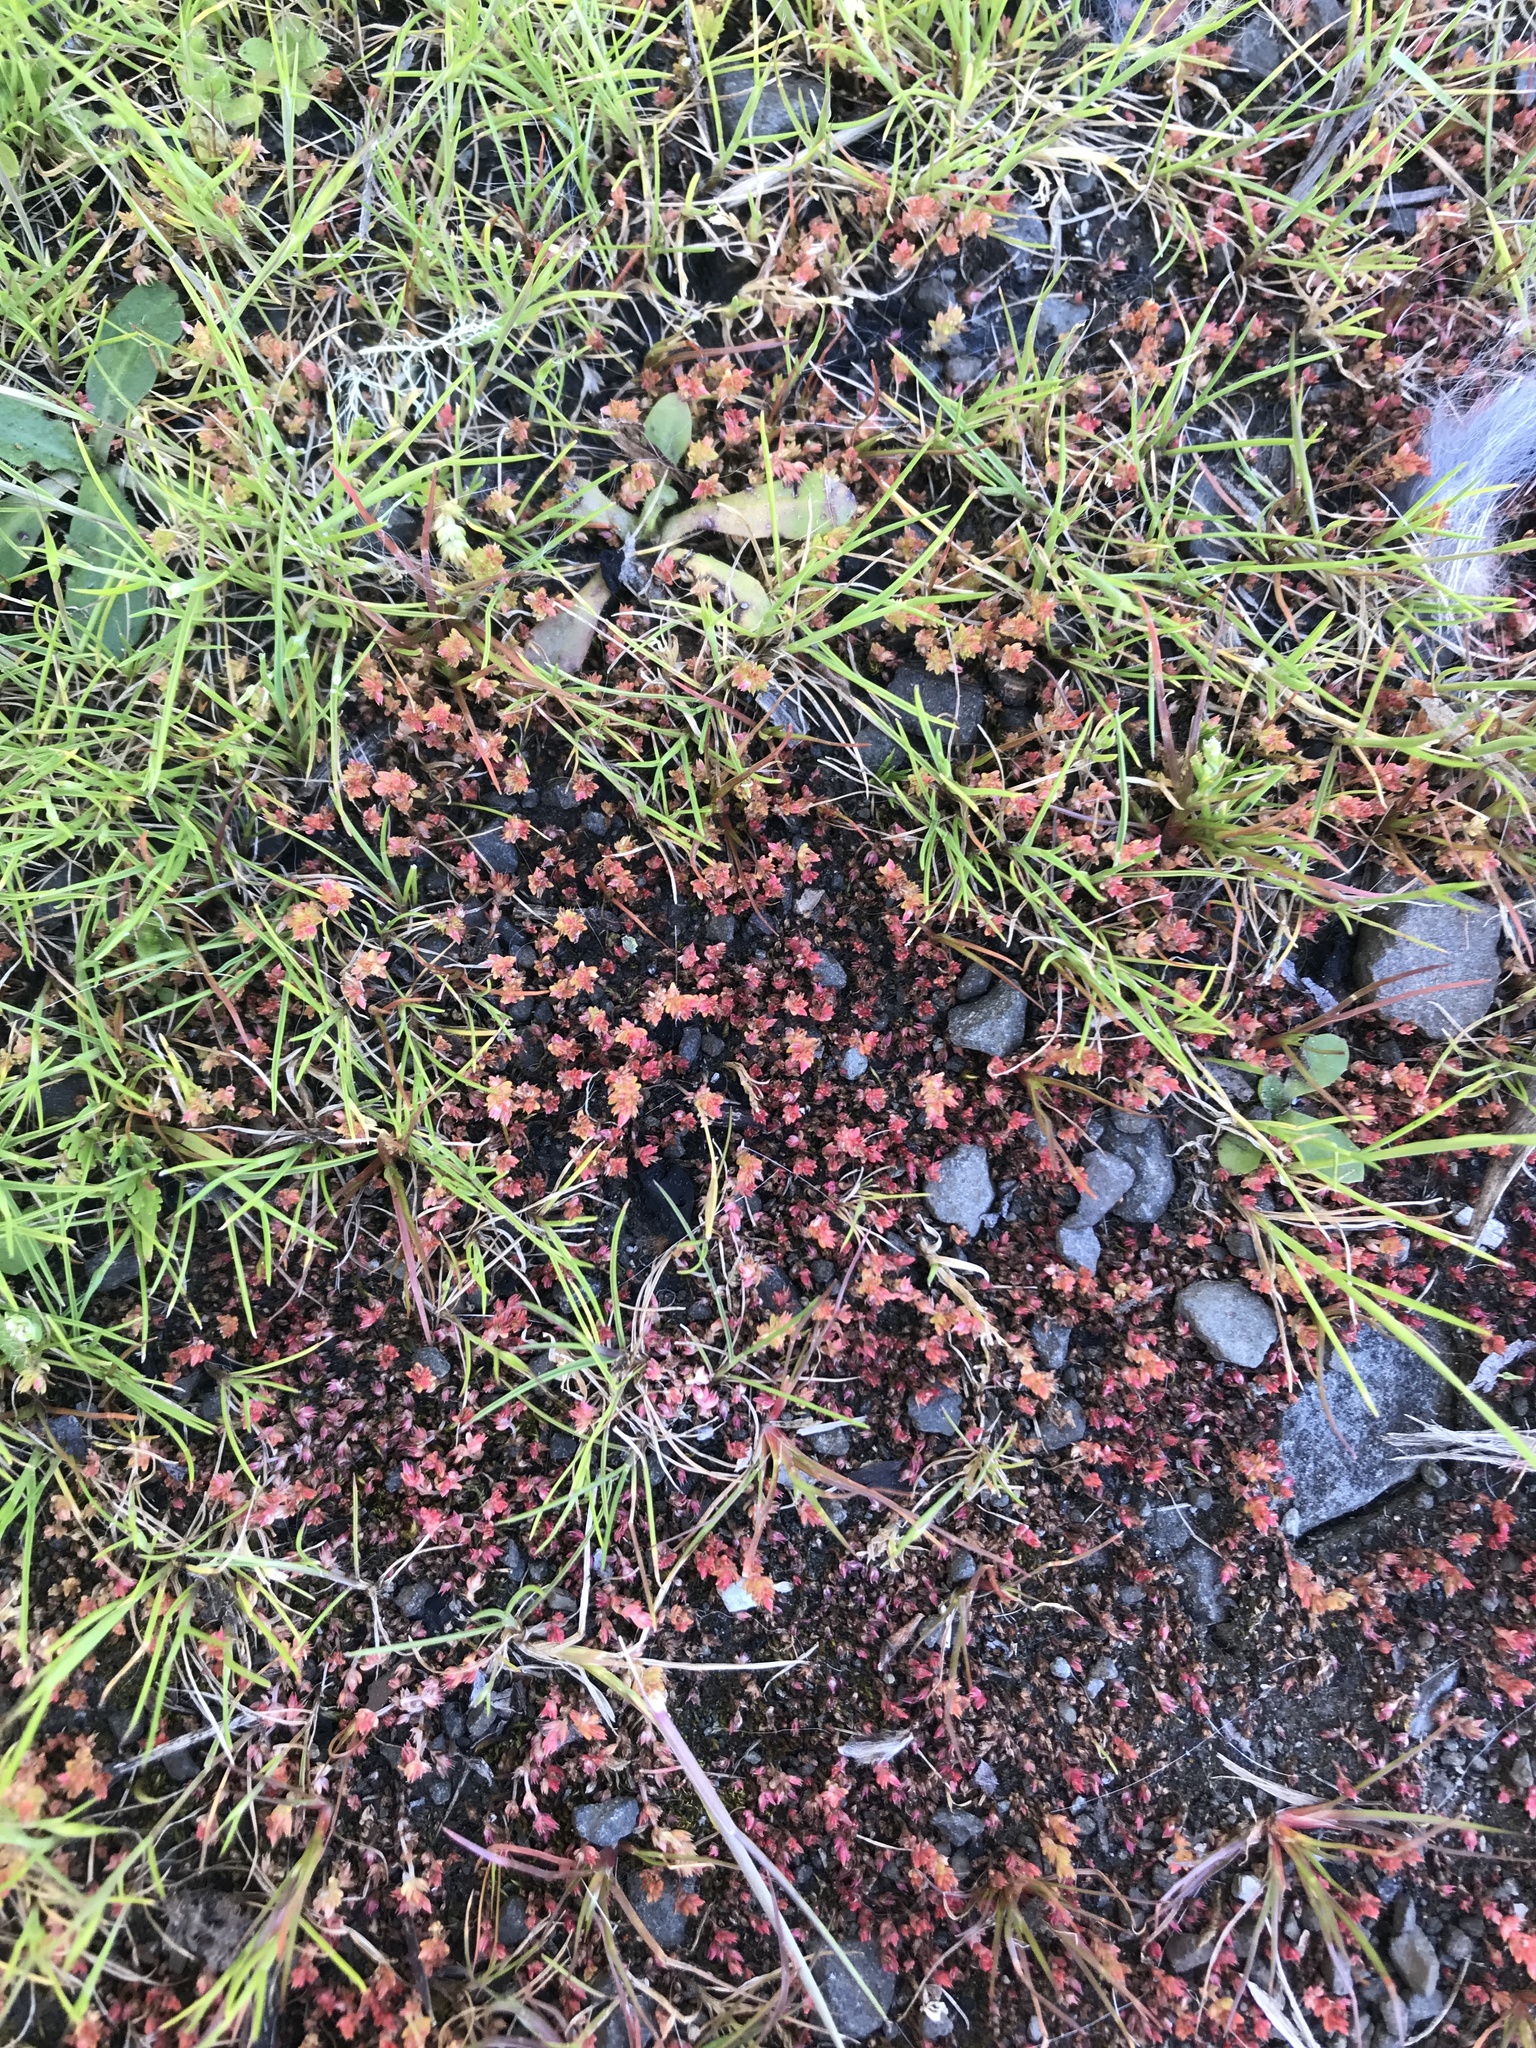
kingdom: Plantae
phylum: Tracheophyta
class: Magnoliopsida
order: Saxifragales
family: Crassulaceae
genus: Crassula
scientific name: Crassula tillaea
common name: Mossy stonecrop
